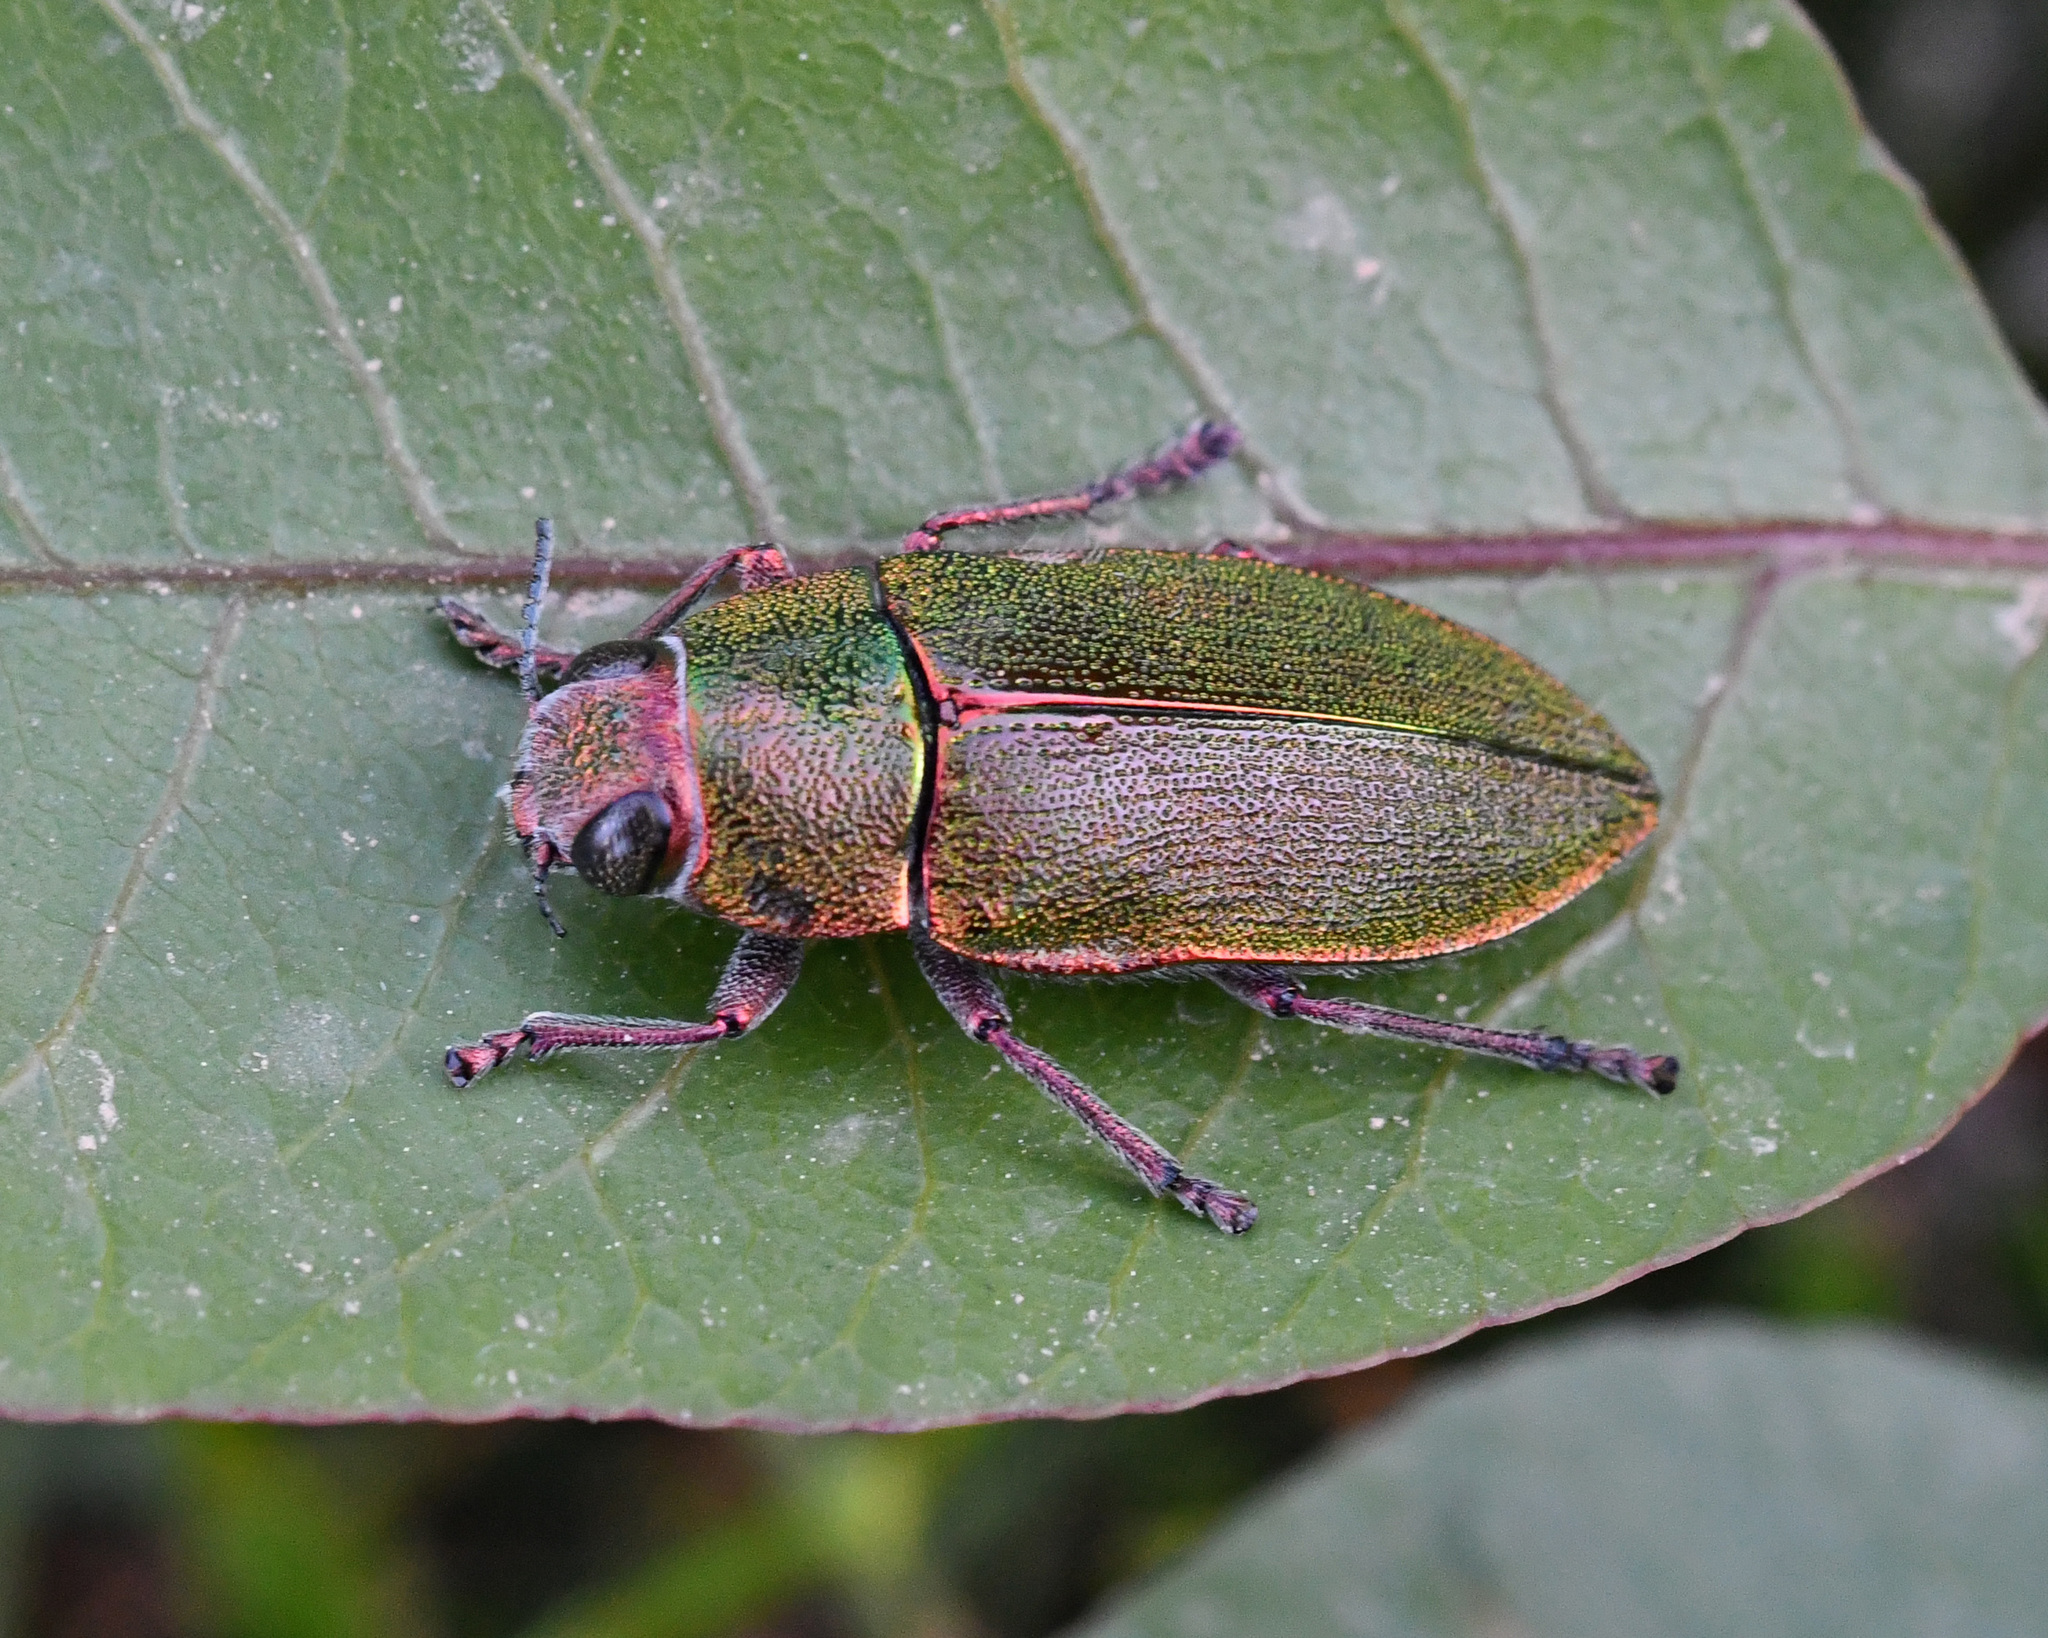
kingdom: Animalia
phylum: Arthropoda
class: Insecta
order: Coleoptera
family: Buprestidae
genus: Perotis
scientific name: Perotis susannae
